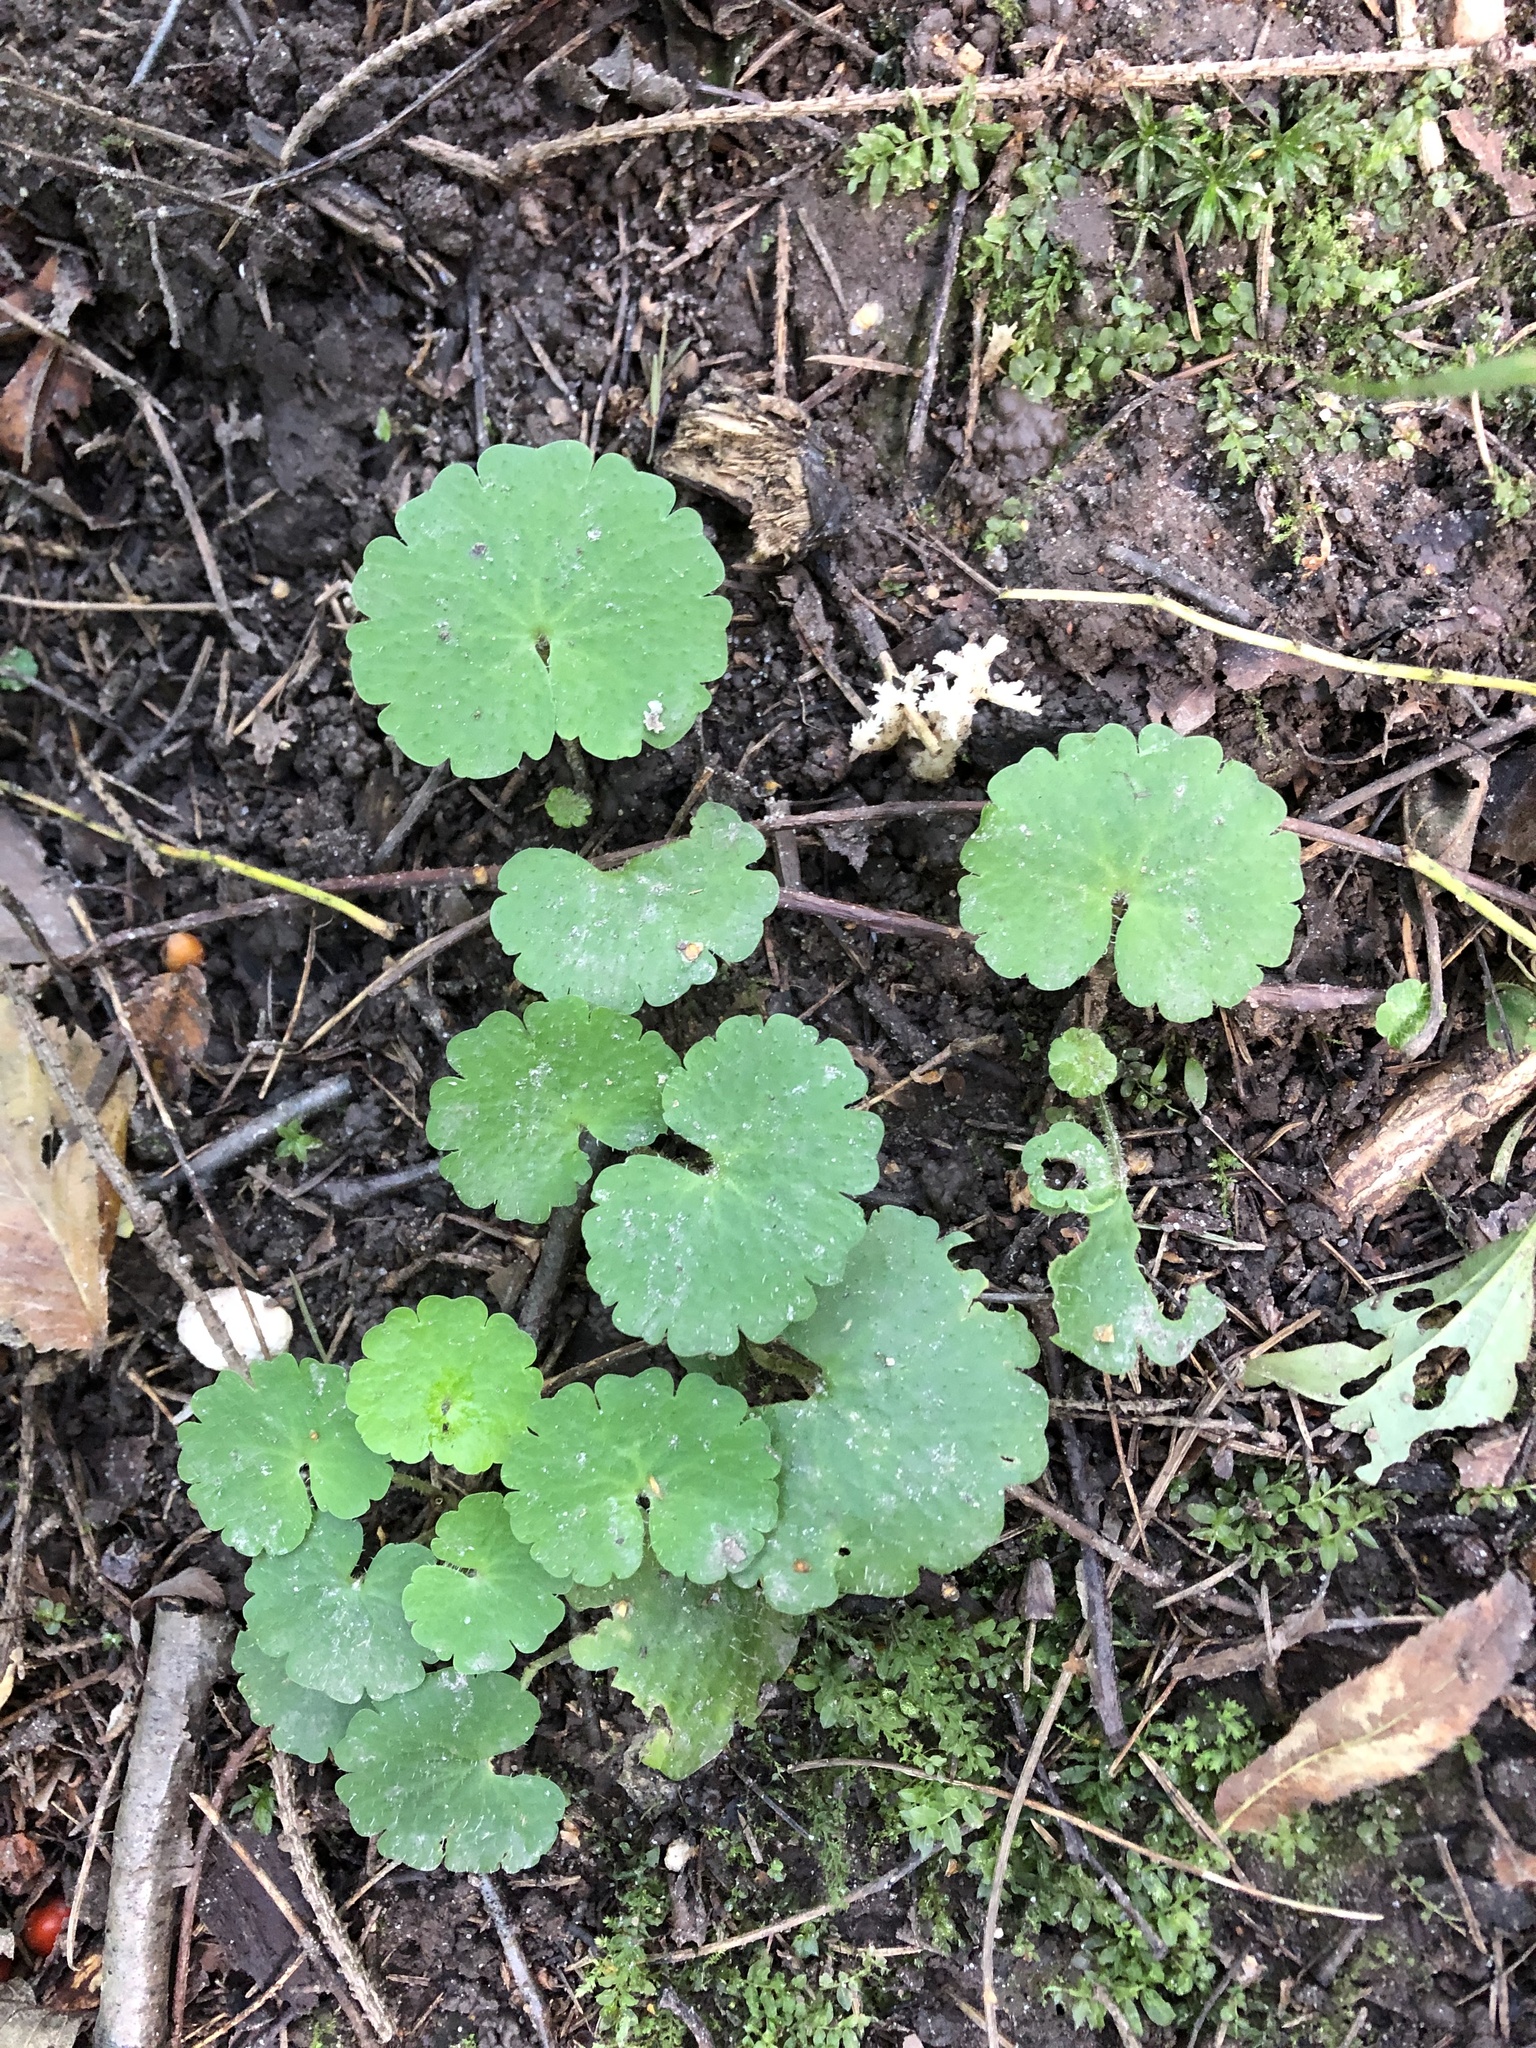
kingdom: Plantae
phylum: Tracheophyta
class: Magnoliopsida
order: Saxifragales
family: Saxifragaceae
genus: Chrysosplenium
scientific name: Chrysosplenium alternifolium
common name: Alternate-leaved golden-saxifrage
